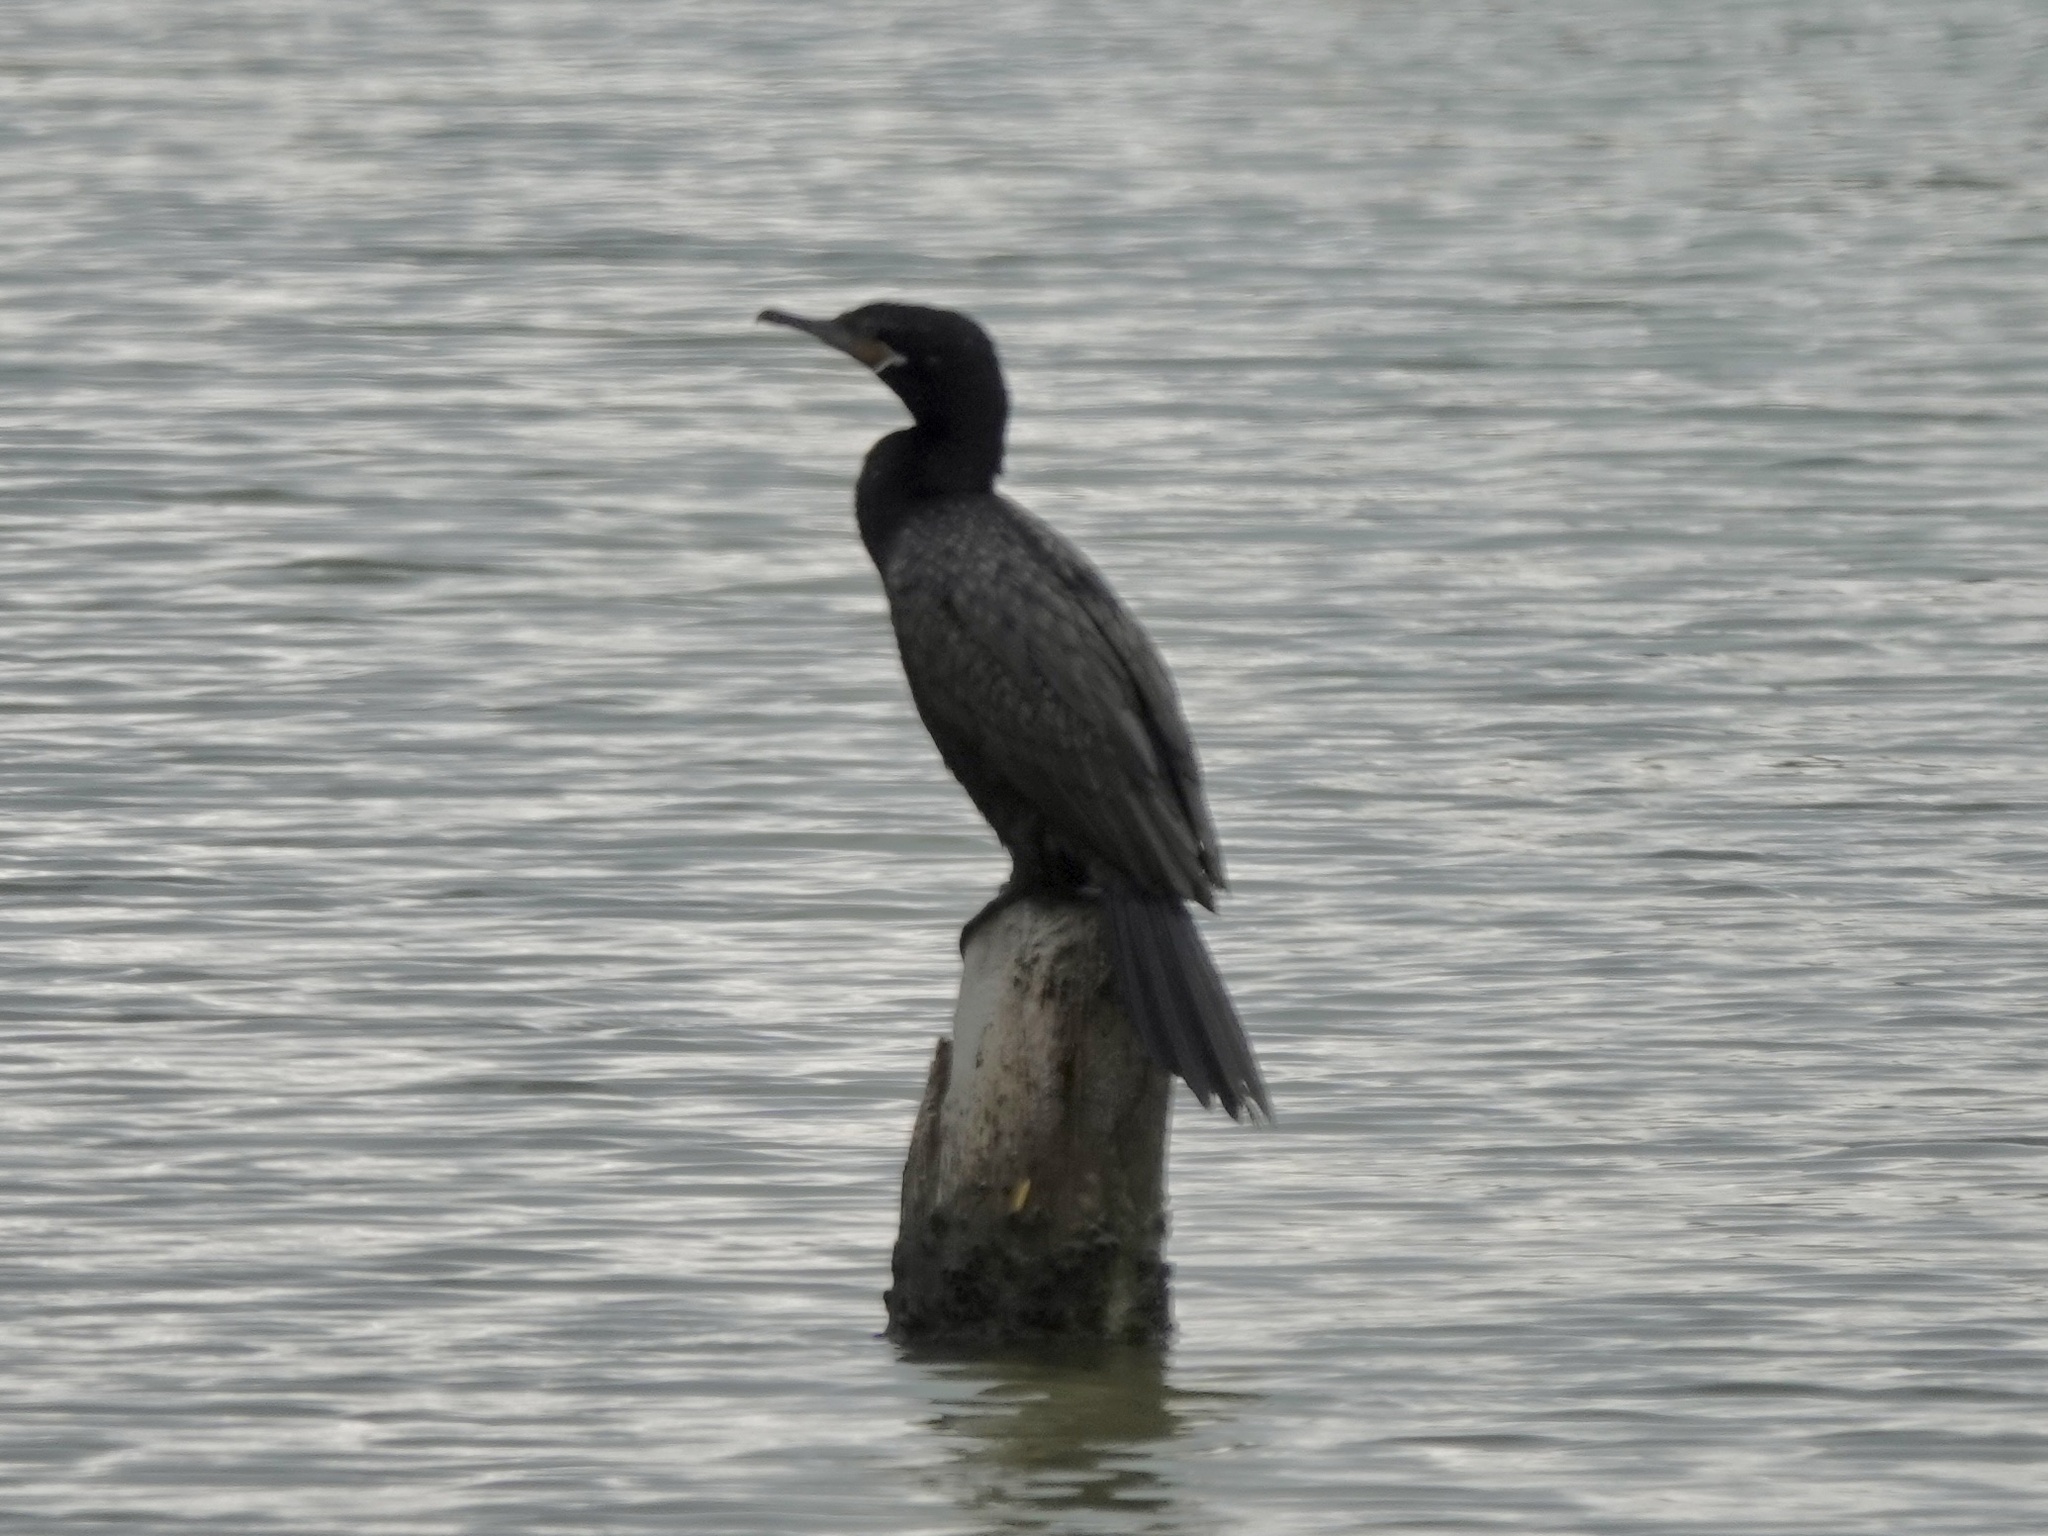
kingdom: Animalia
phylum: Chordata
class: Aves
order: Suliformes
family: Phalacrocoracidae
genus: Phalacrocorax
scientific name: Phalacrocorax brasilianus
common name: Neotropic cormorant
